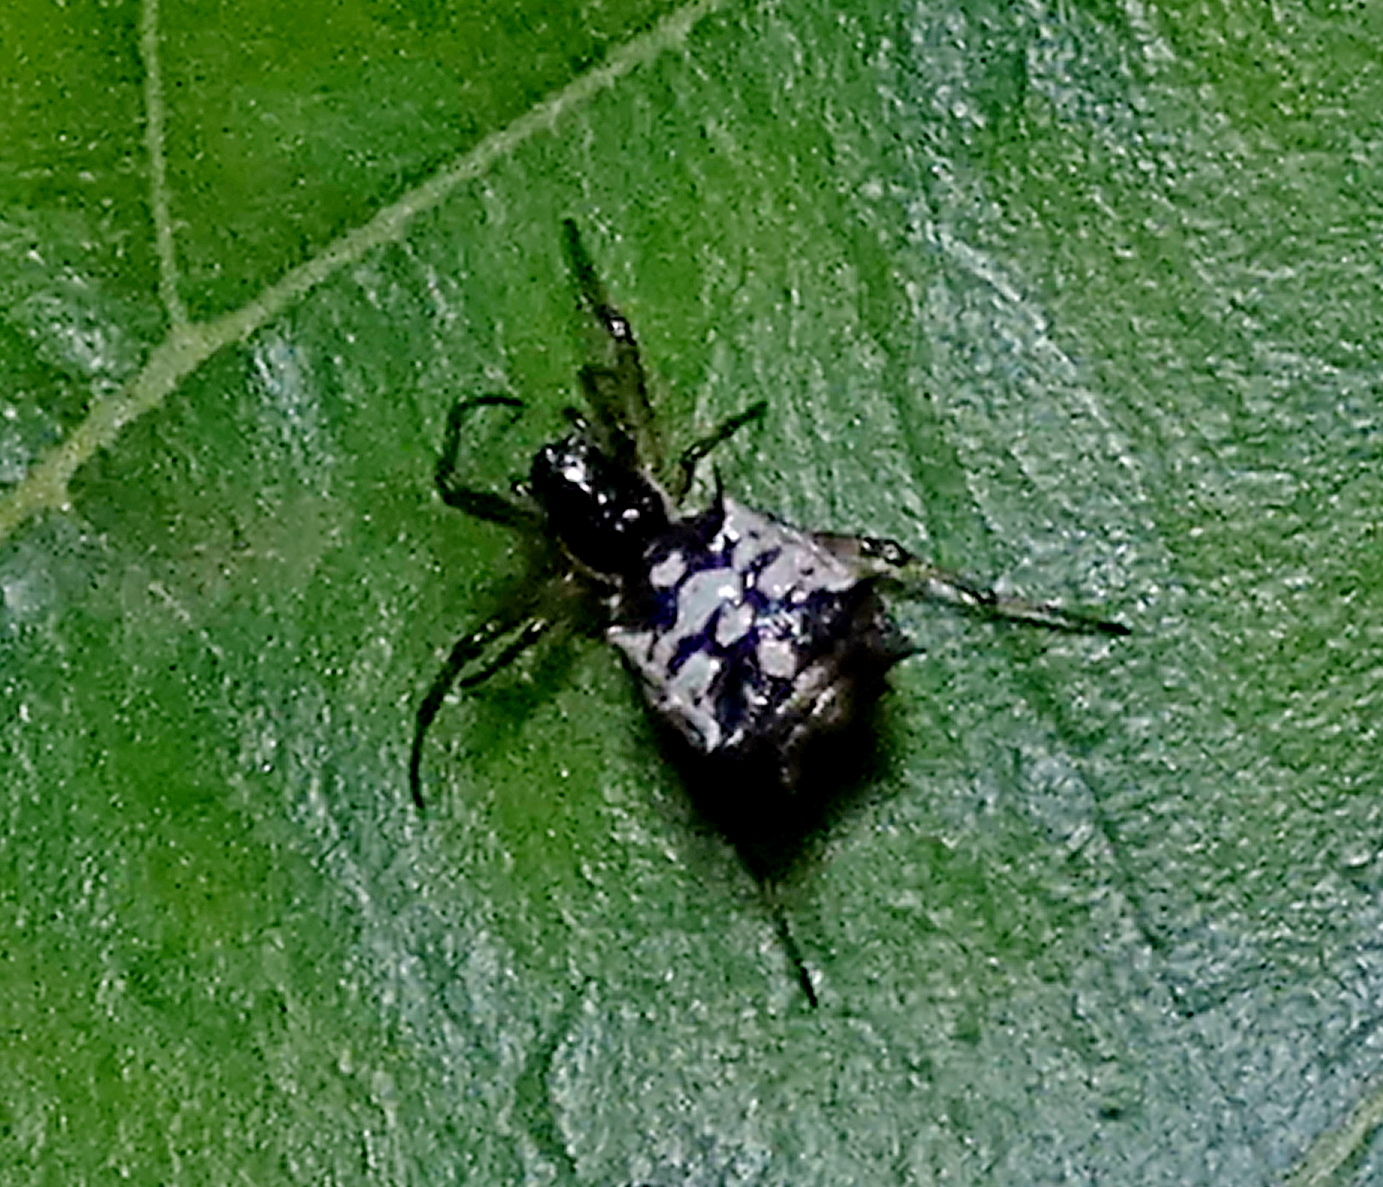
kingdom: Animalia
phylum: Arthropoda
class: Arachnida
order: Araneae
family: Araneidae
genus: Micrathena
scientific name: Micrathena picta
